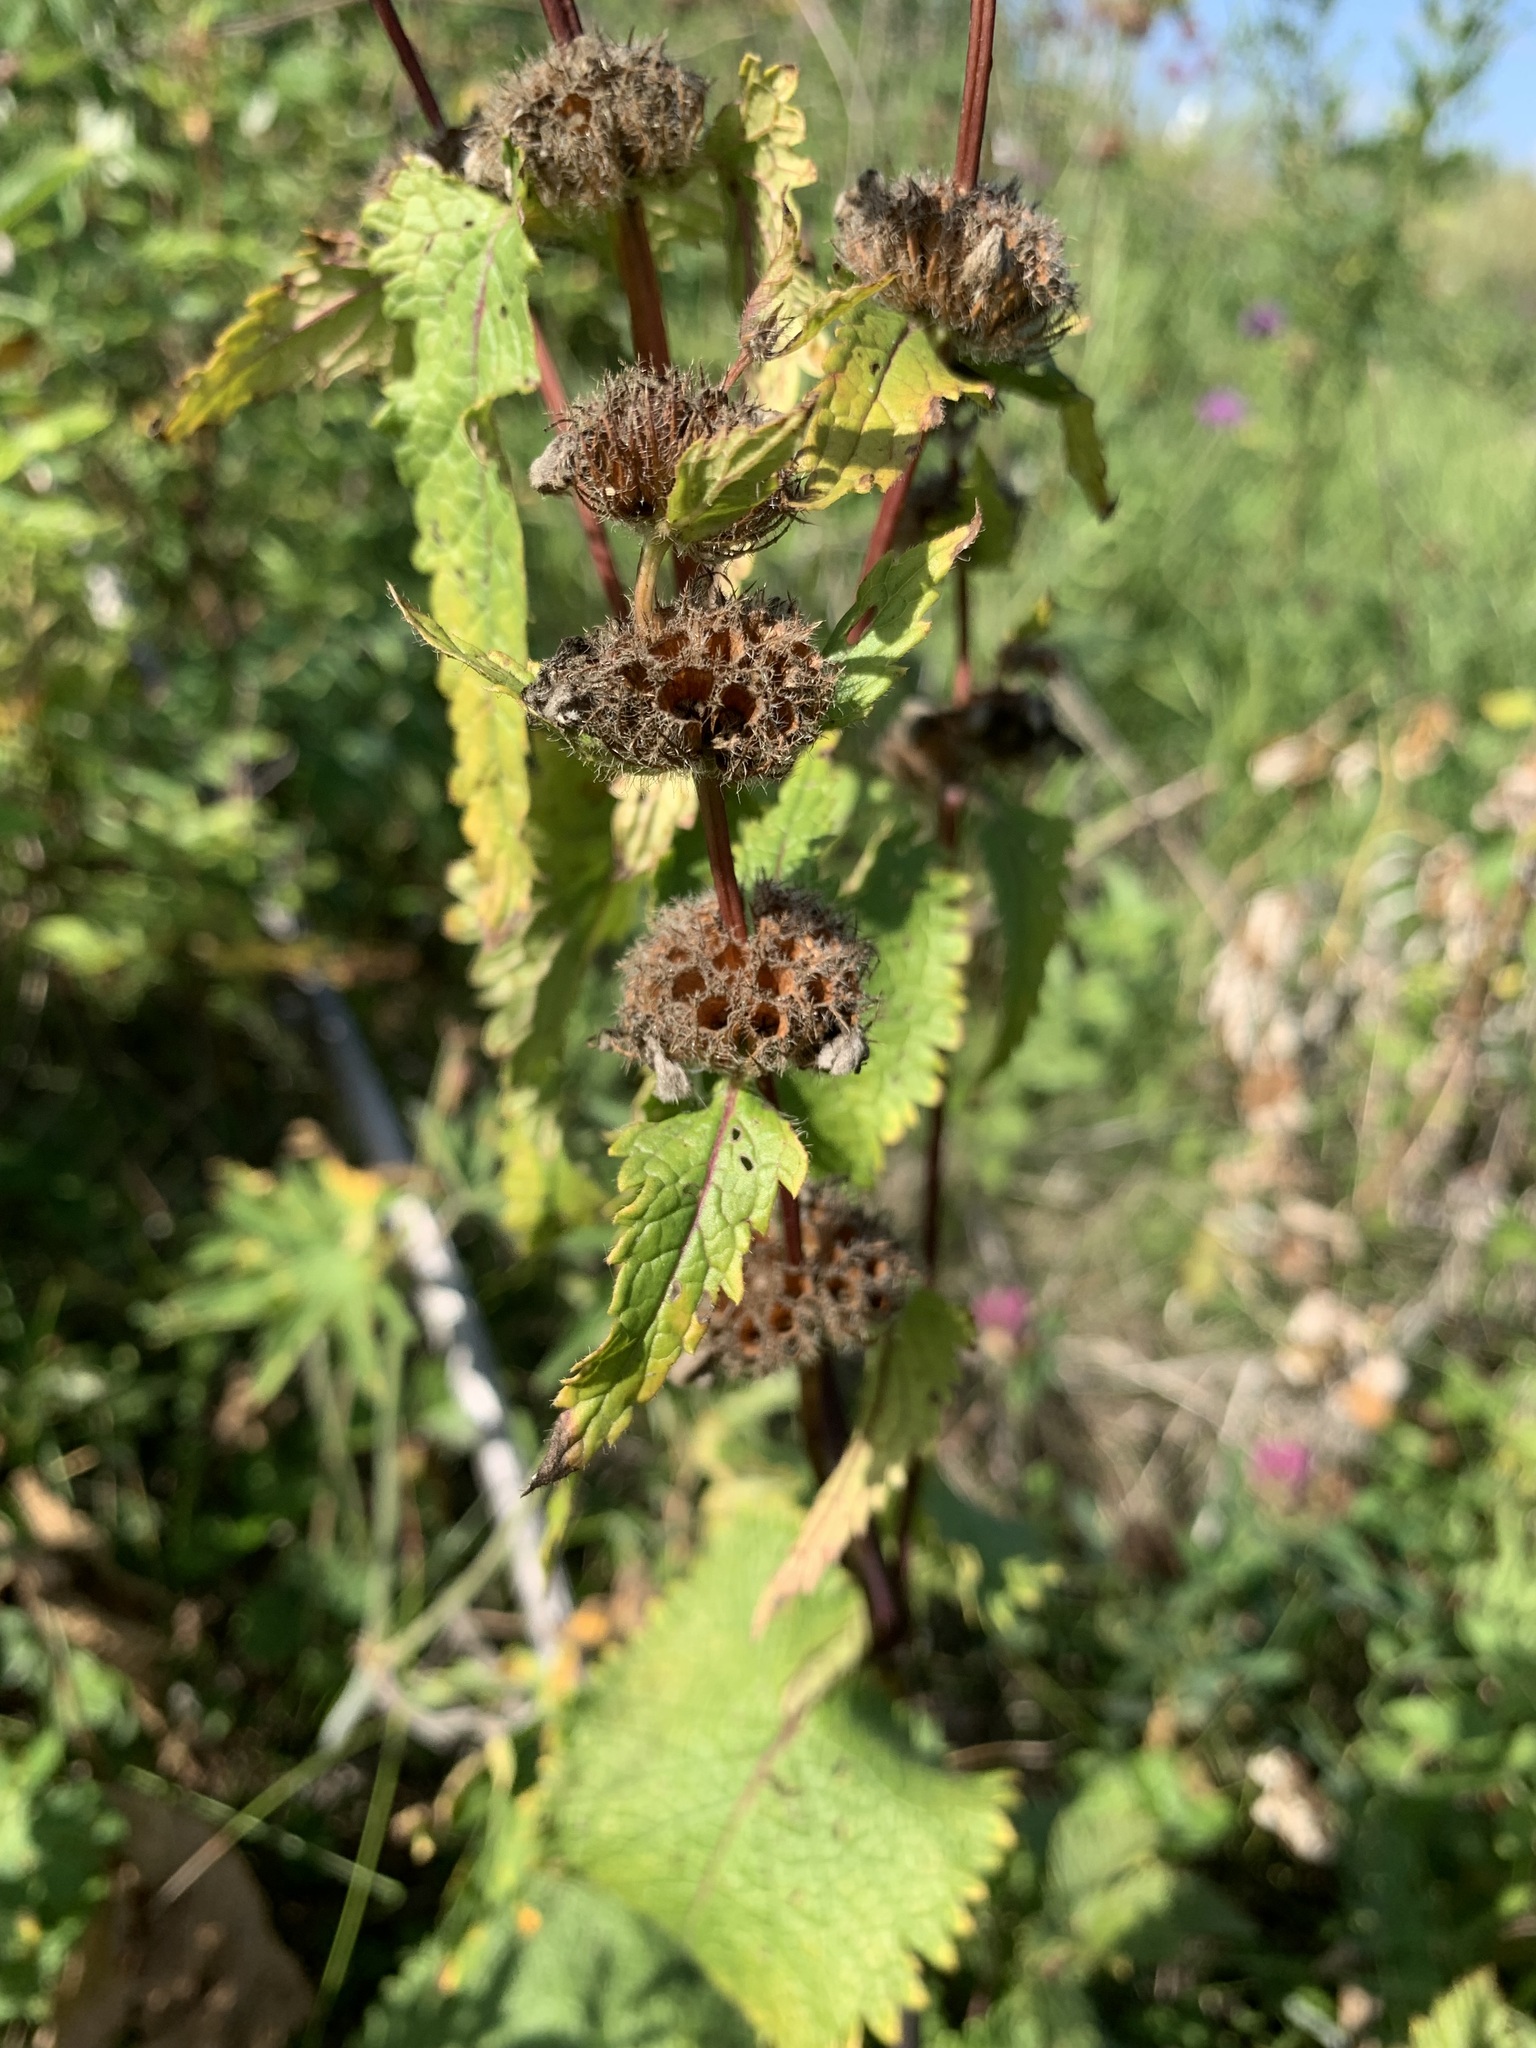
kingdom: Plantae
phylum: Tracheophyta
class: Magnoliopsida
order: Lamiales
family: Lamiaceae
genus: Phlomoides
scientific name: Phlomoides tuberosa
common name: Tuberous jerusalem sage
